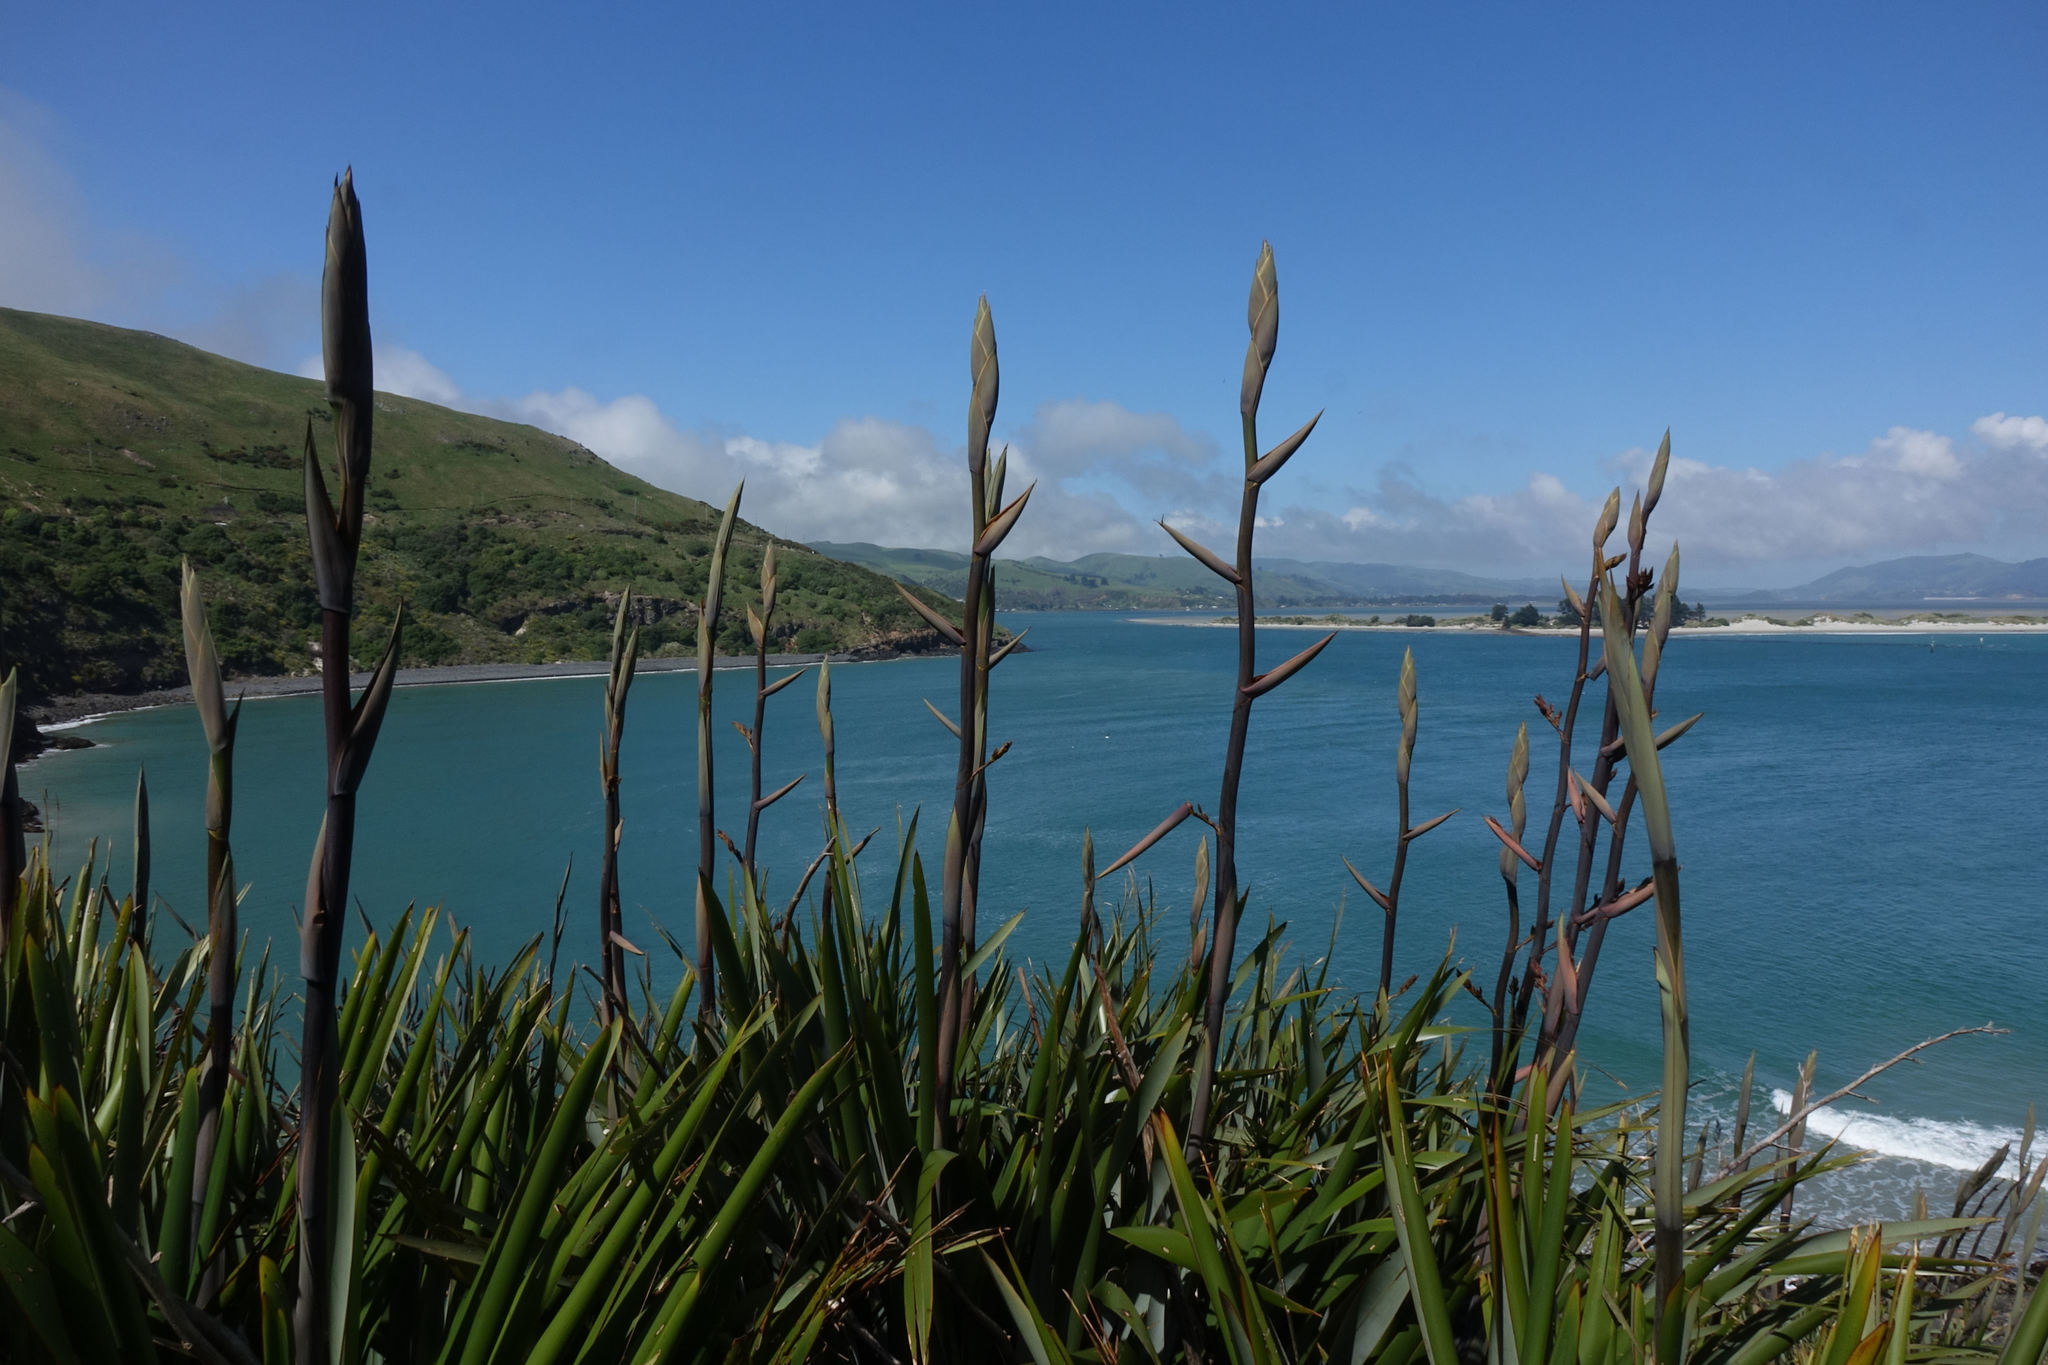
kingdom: Plantae
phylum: Tracheophyta
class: Liliopsida
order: Asparagales
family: Asphodelaceae
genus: Phormium
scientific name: Phormium tenax
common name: New zealand flax
